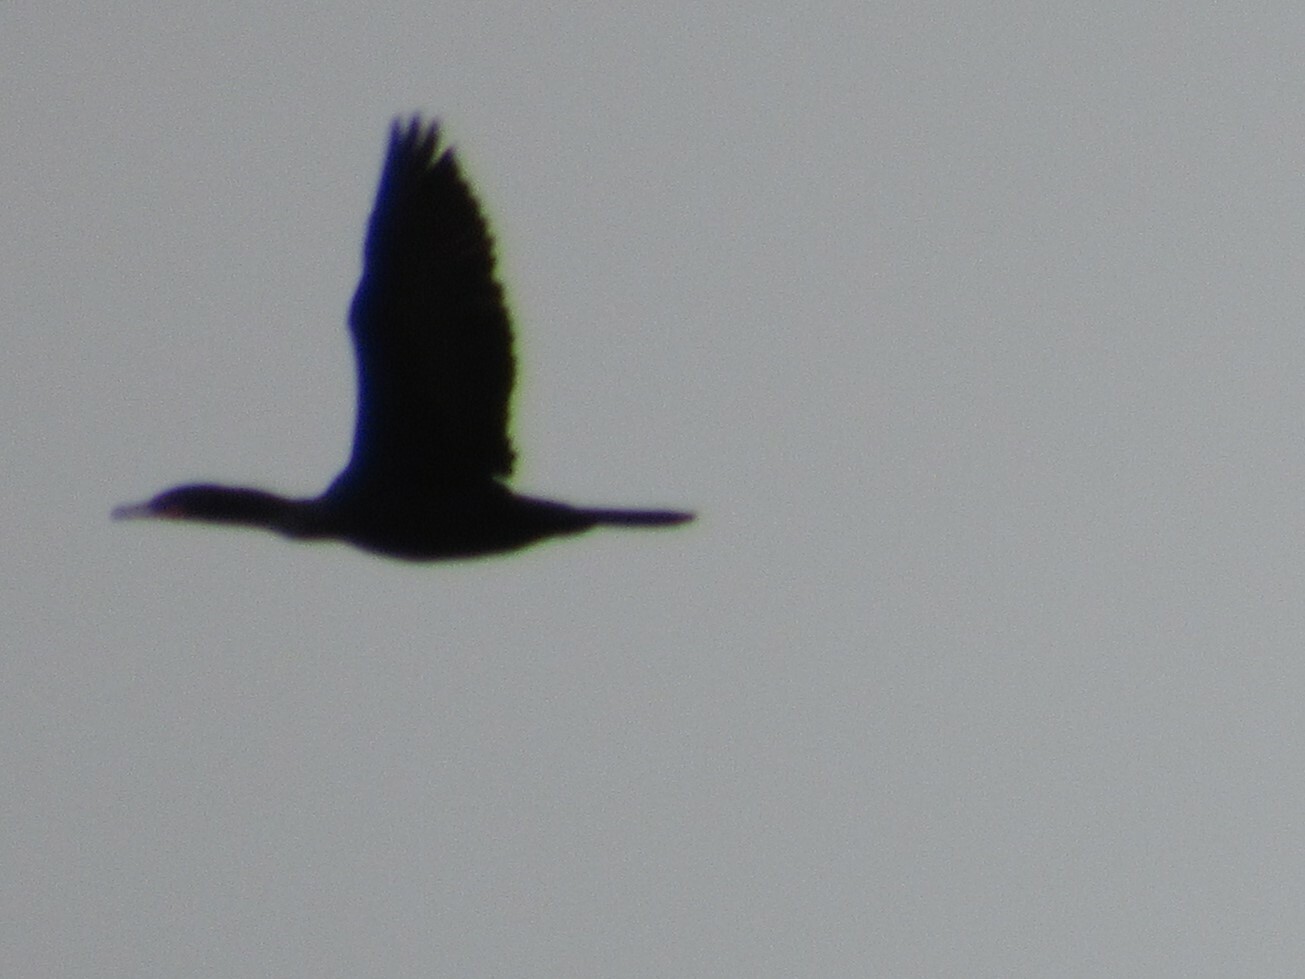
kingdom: Animalia
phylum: Chordata
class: Aves
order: Suliformes
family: Phalacrocoracidae
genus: Phalacrocorax
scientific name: Phalacrocorax auritus
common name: Double-crested cormorant
